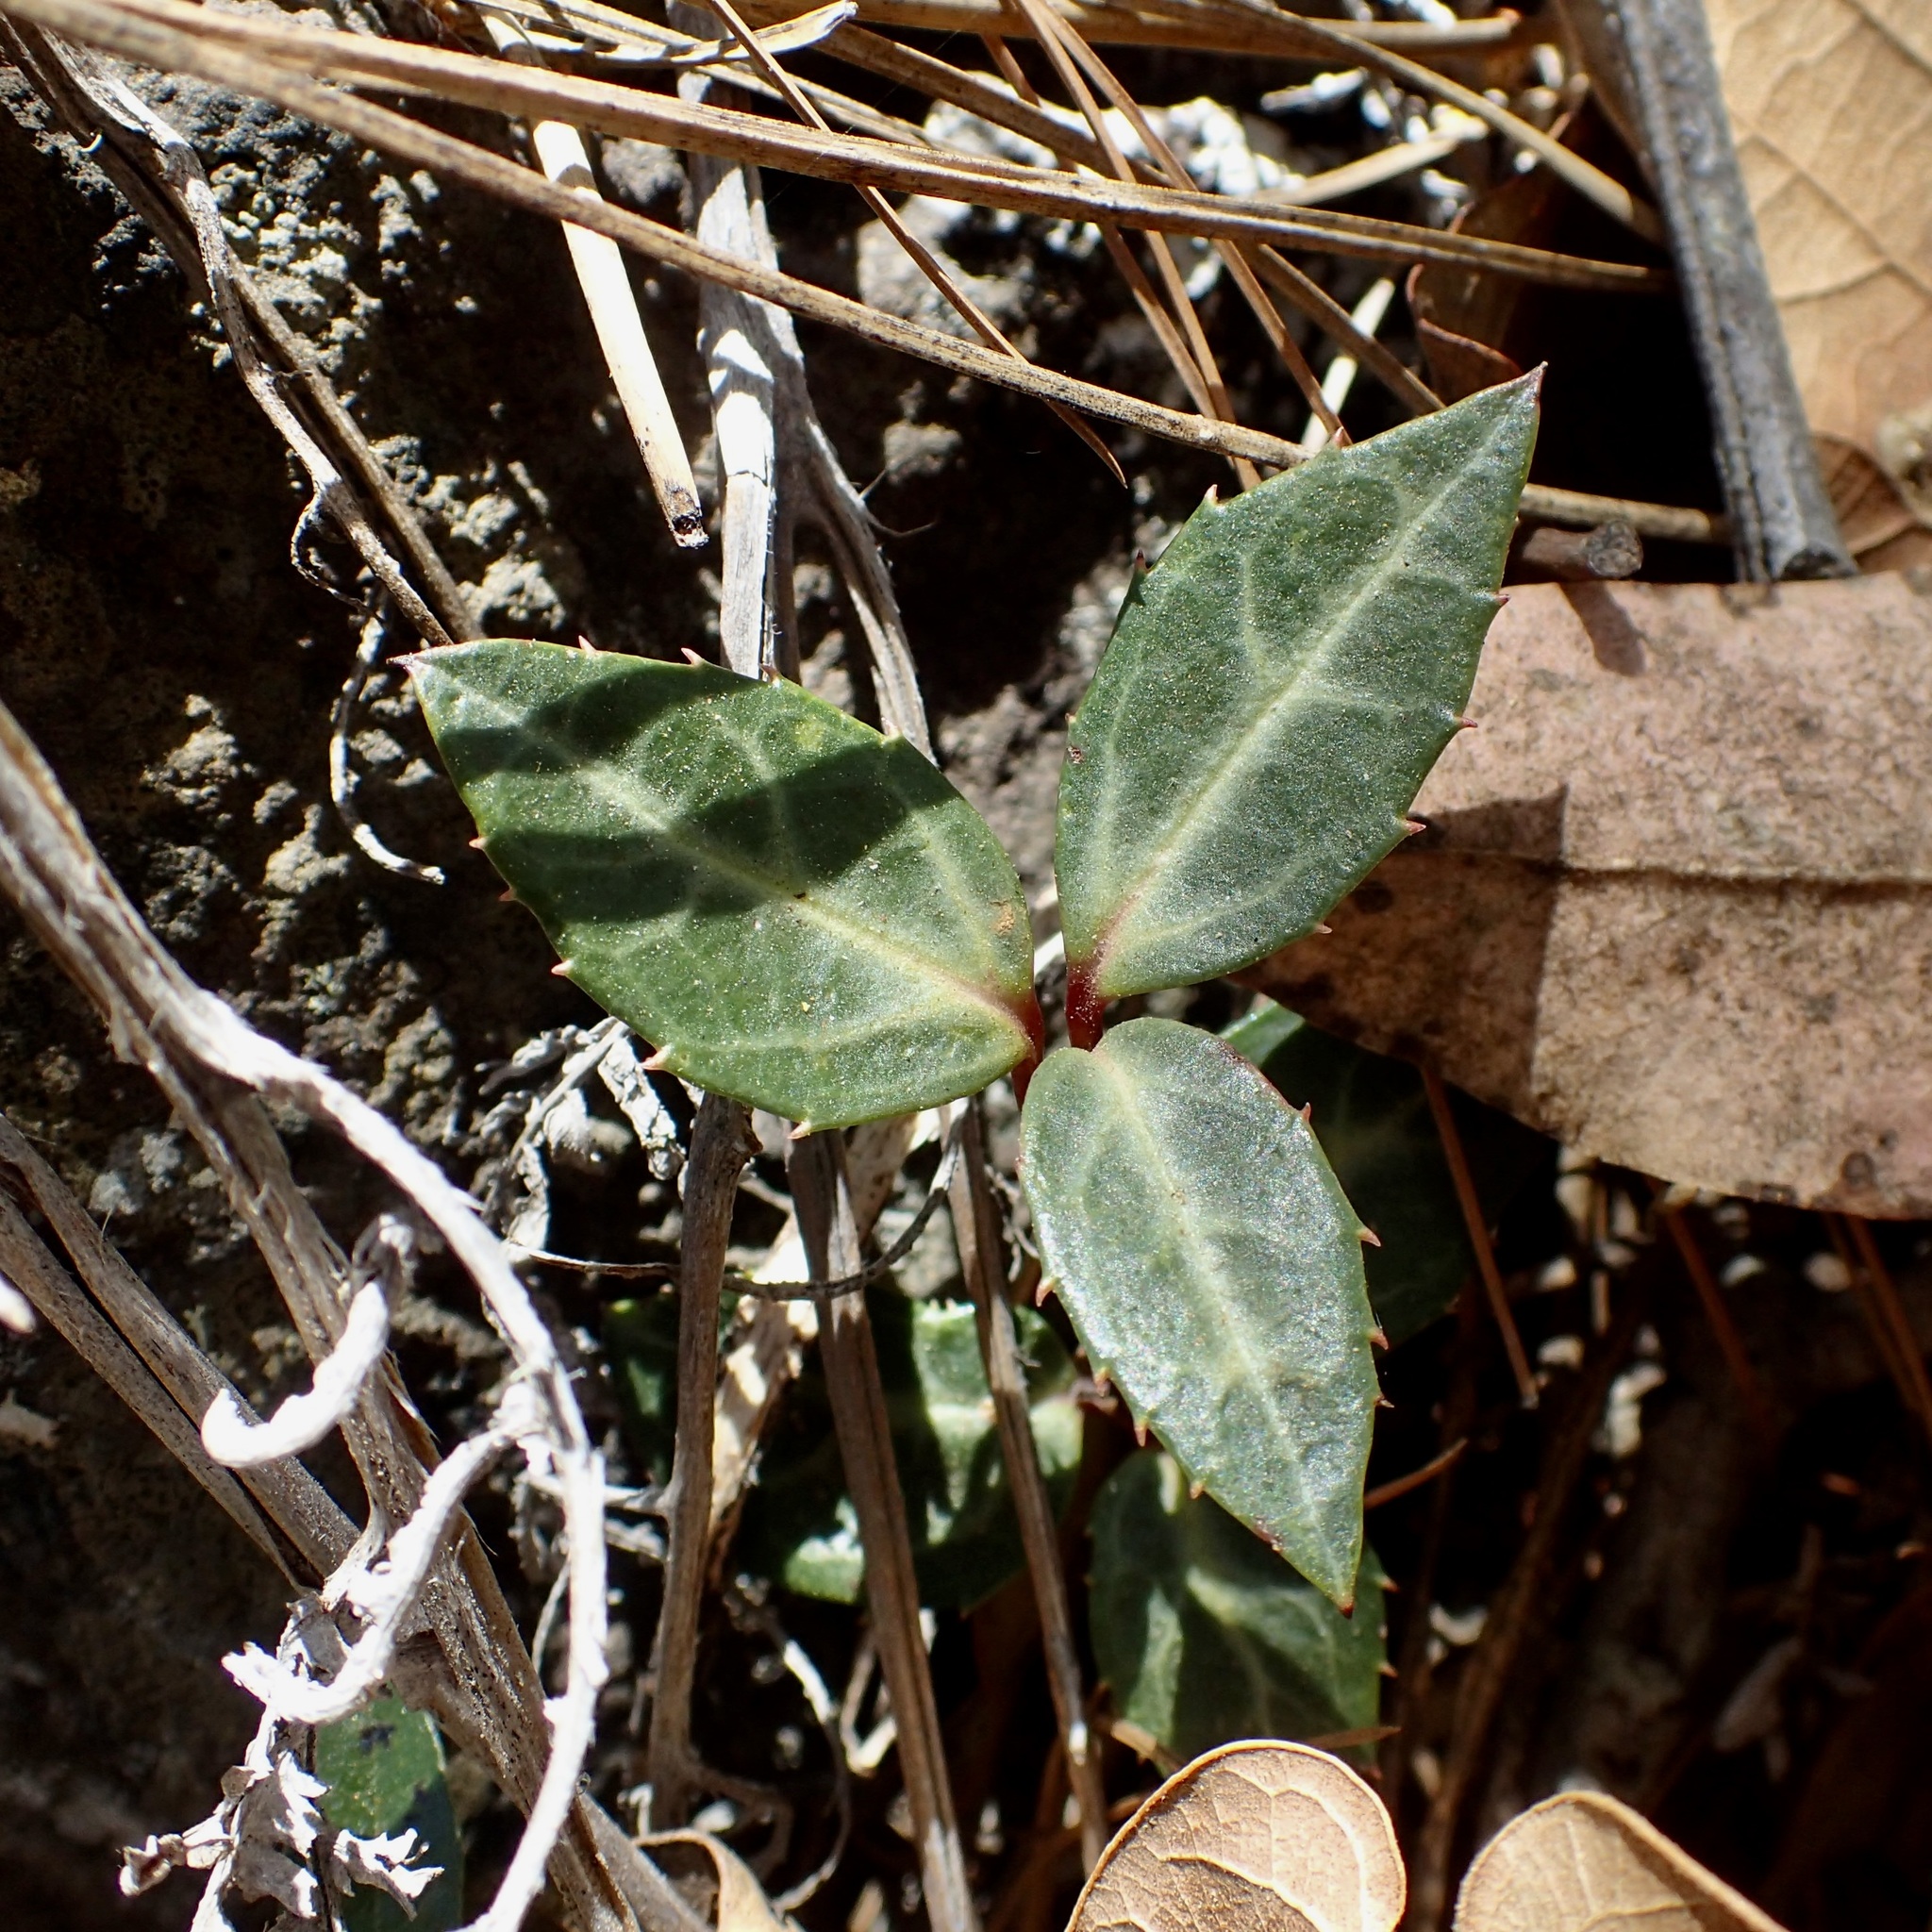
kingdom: Plantae
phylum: Tracheophyta
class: Magnoliopsida
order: Ericales
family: Ericaceae
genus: Chimaphila
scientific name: Chimaphila maculata
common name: Spotted pipsissewa
